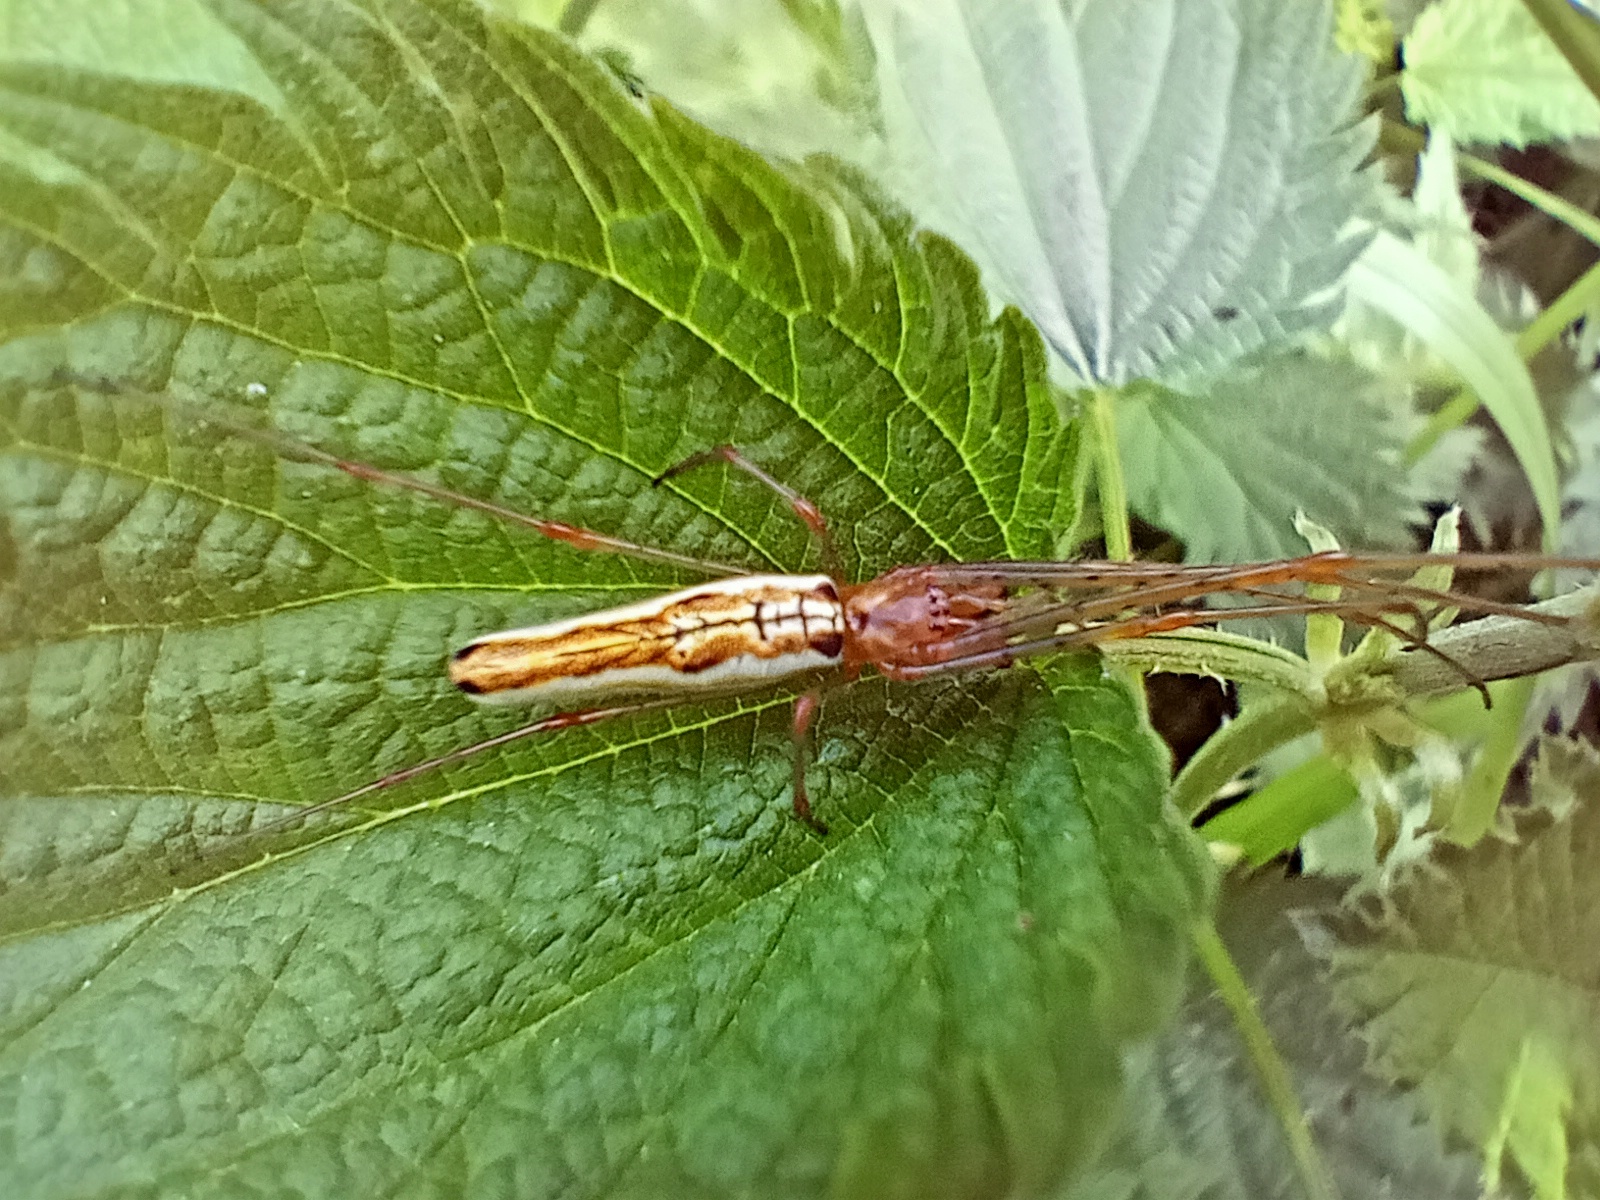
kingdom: Animalia
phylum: Arthropoda
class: Arachnida
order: Araneae
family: Tetragnathidae
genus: Tetragnatha
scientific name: Tetragnatha extensa
